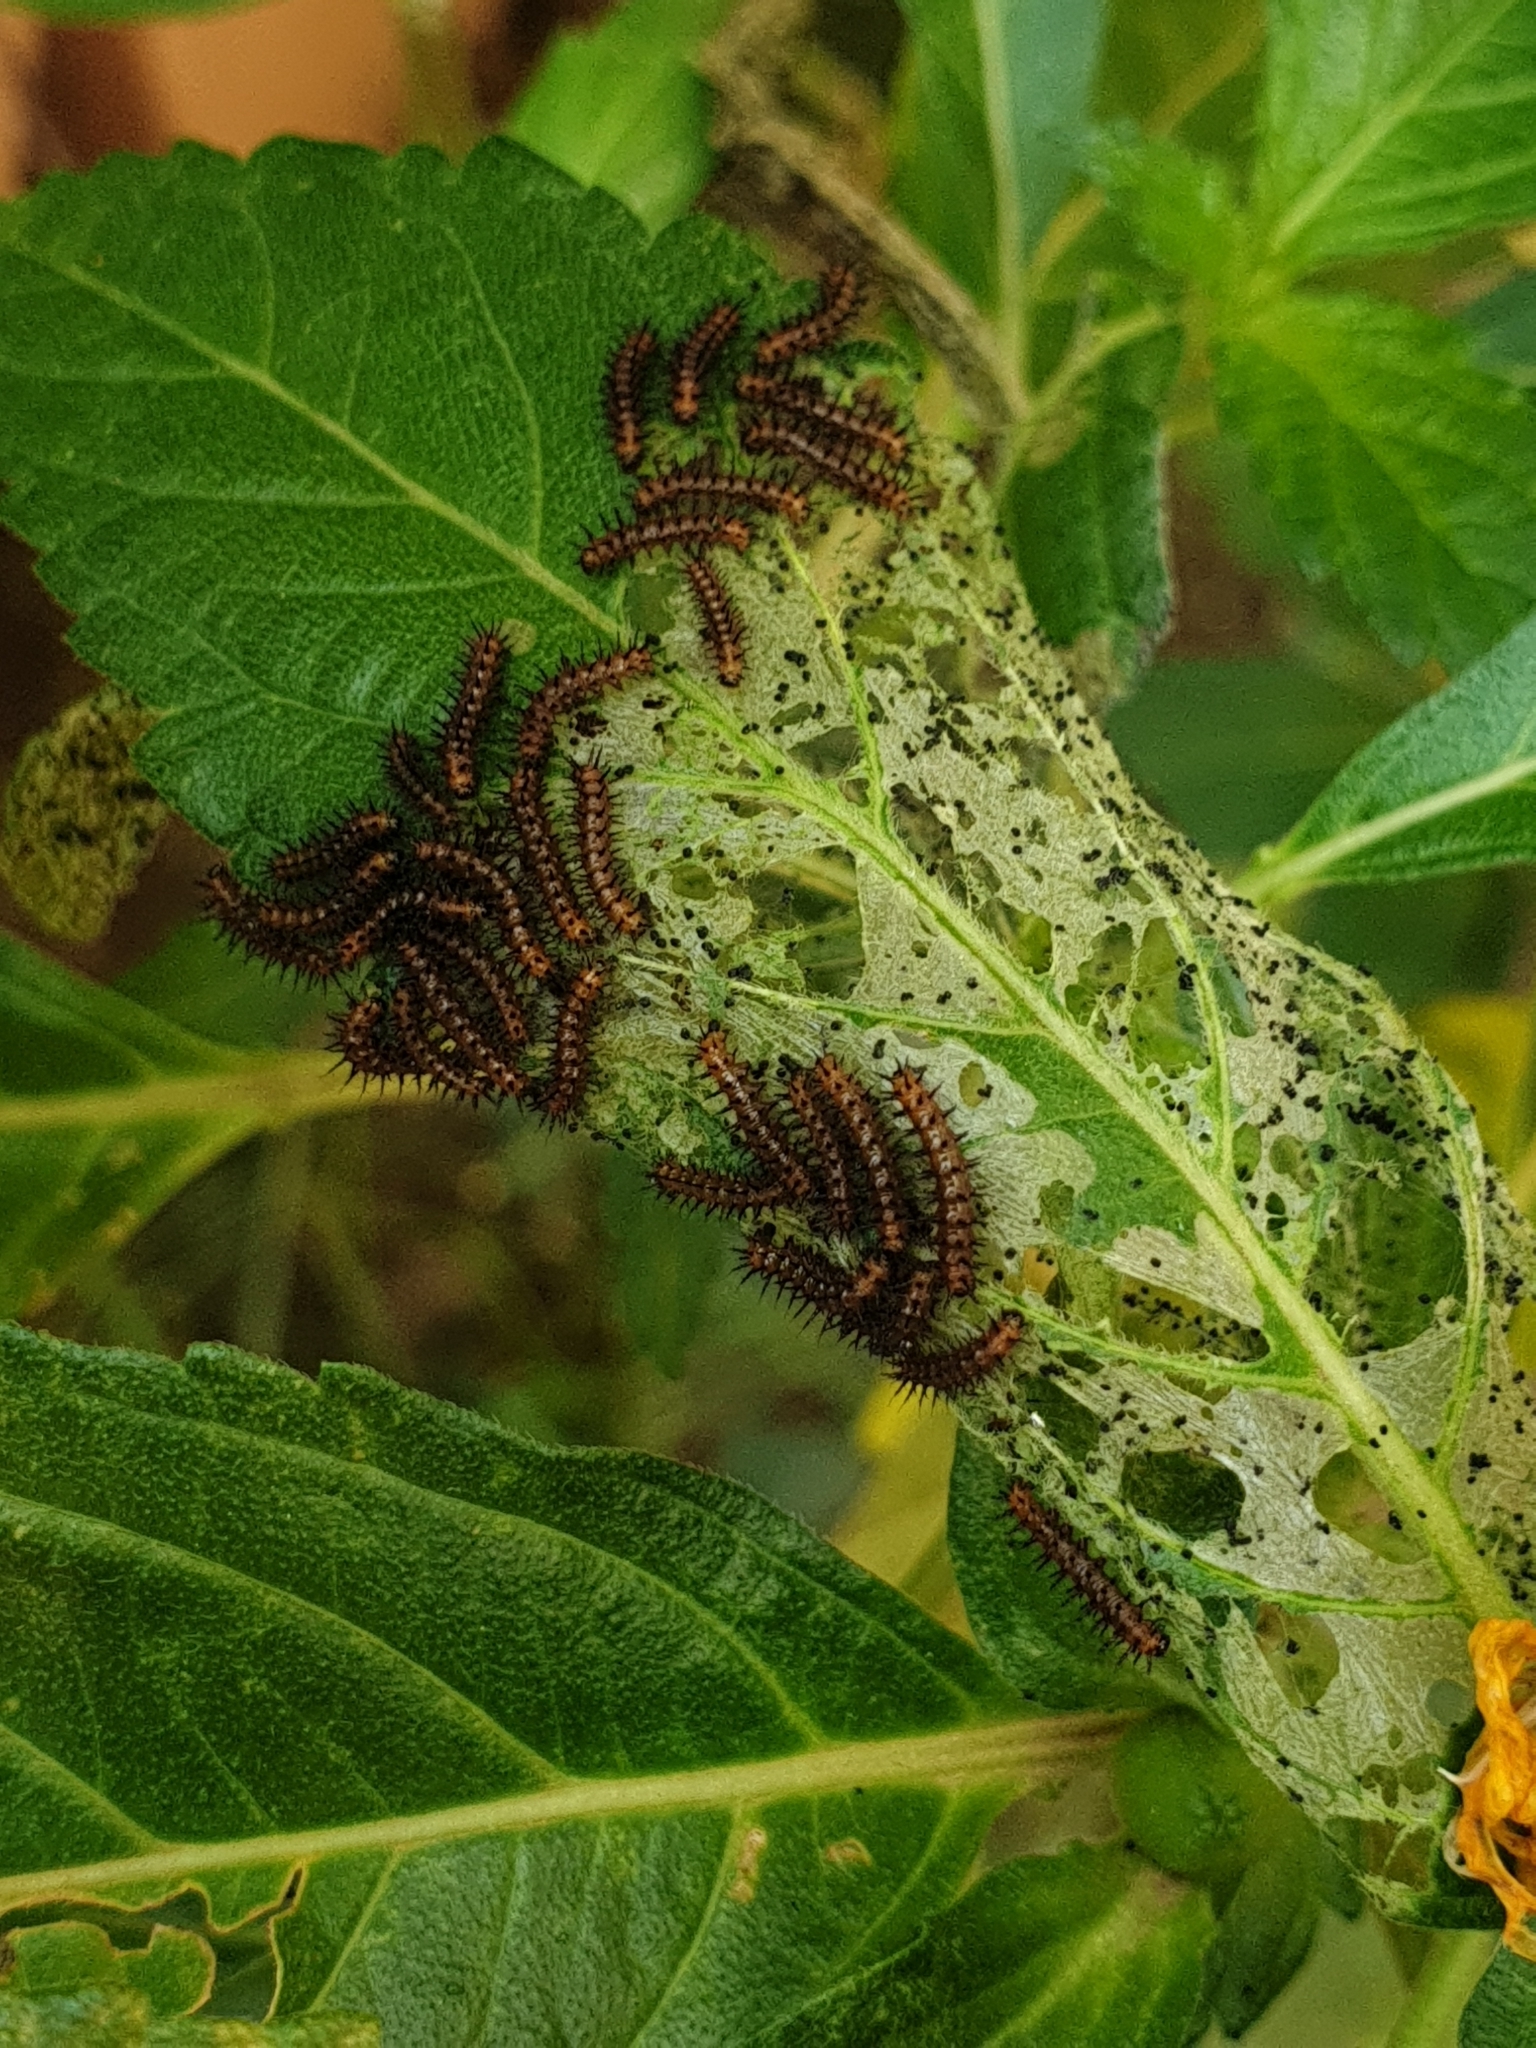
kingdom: Animalia
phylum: Arthropoda
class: Insecta
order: Lepidoptera
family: Nymphalidae
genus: Acraea
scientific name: Acraea terpsicore
